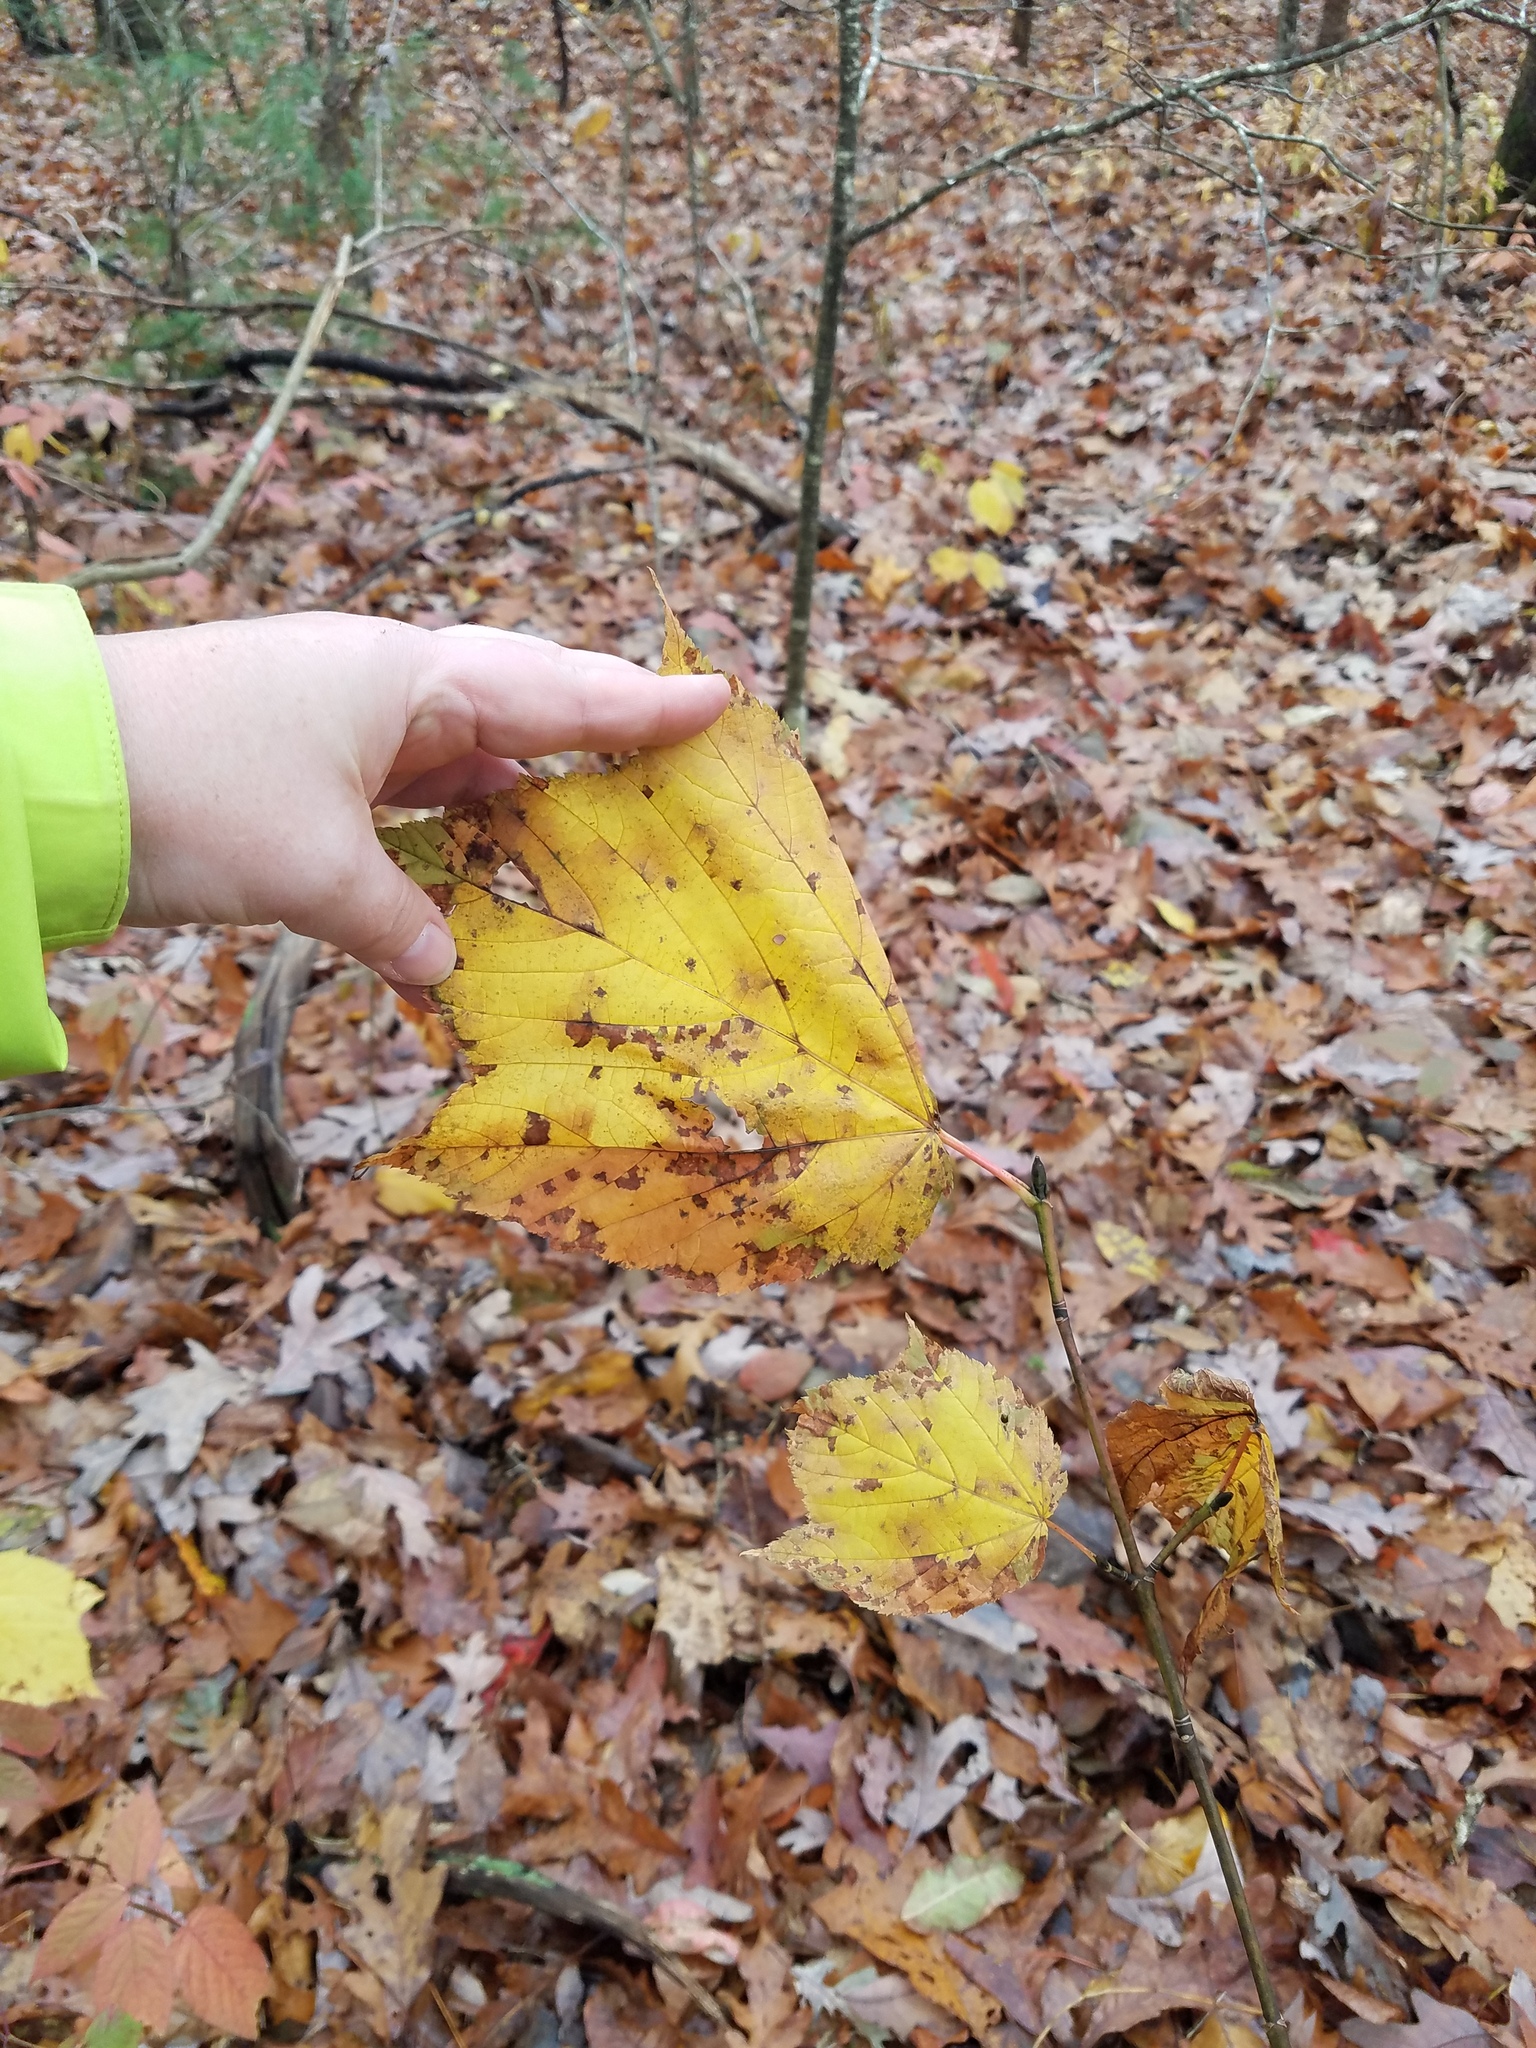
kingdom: Plantae
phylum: Tracheophyta
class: Magnoliopsida
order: Sapindales
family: Sapindaceae
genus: Acer
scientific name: Acer pensylvanicum
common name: Moosewood
